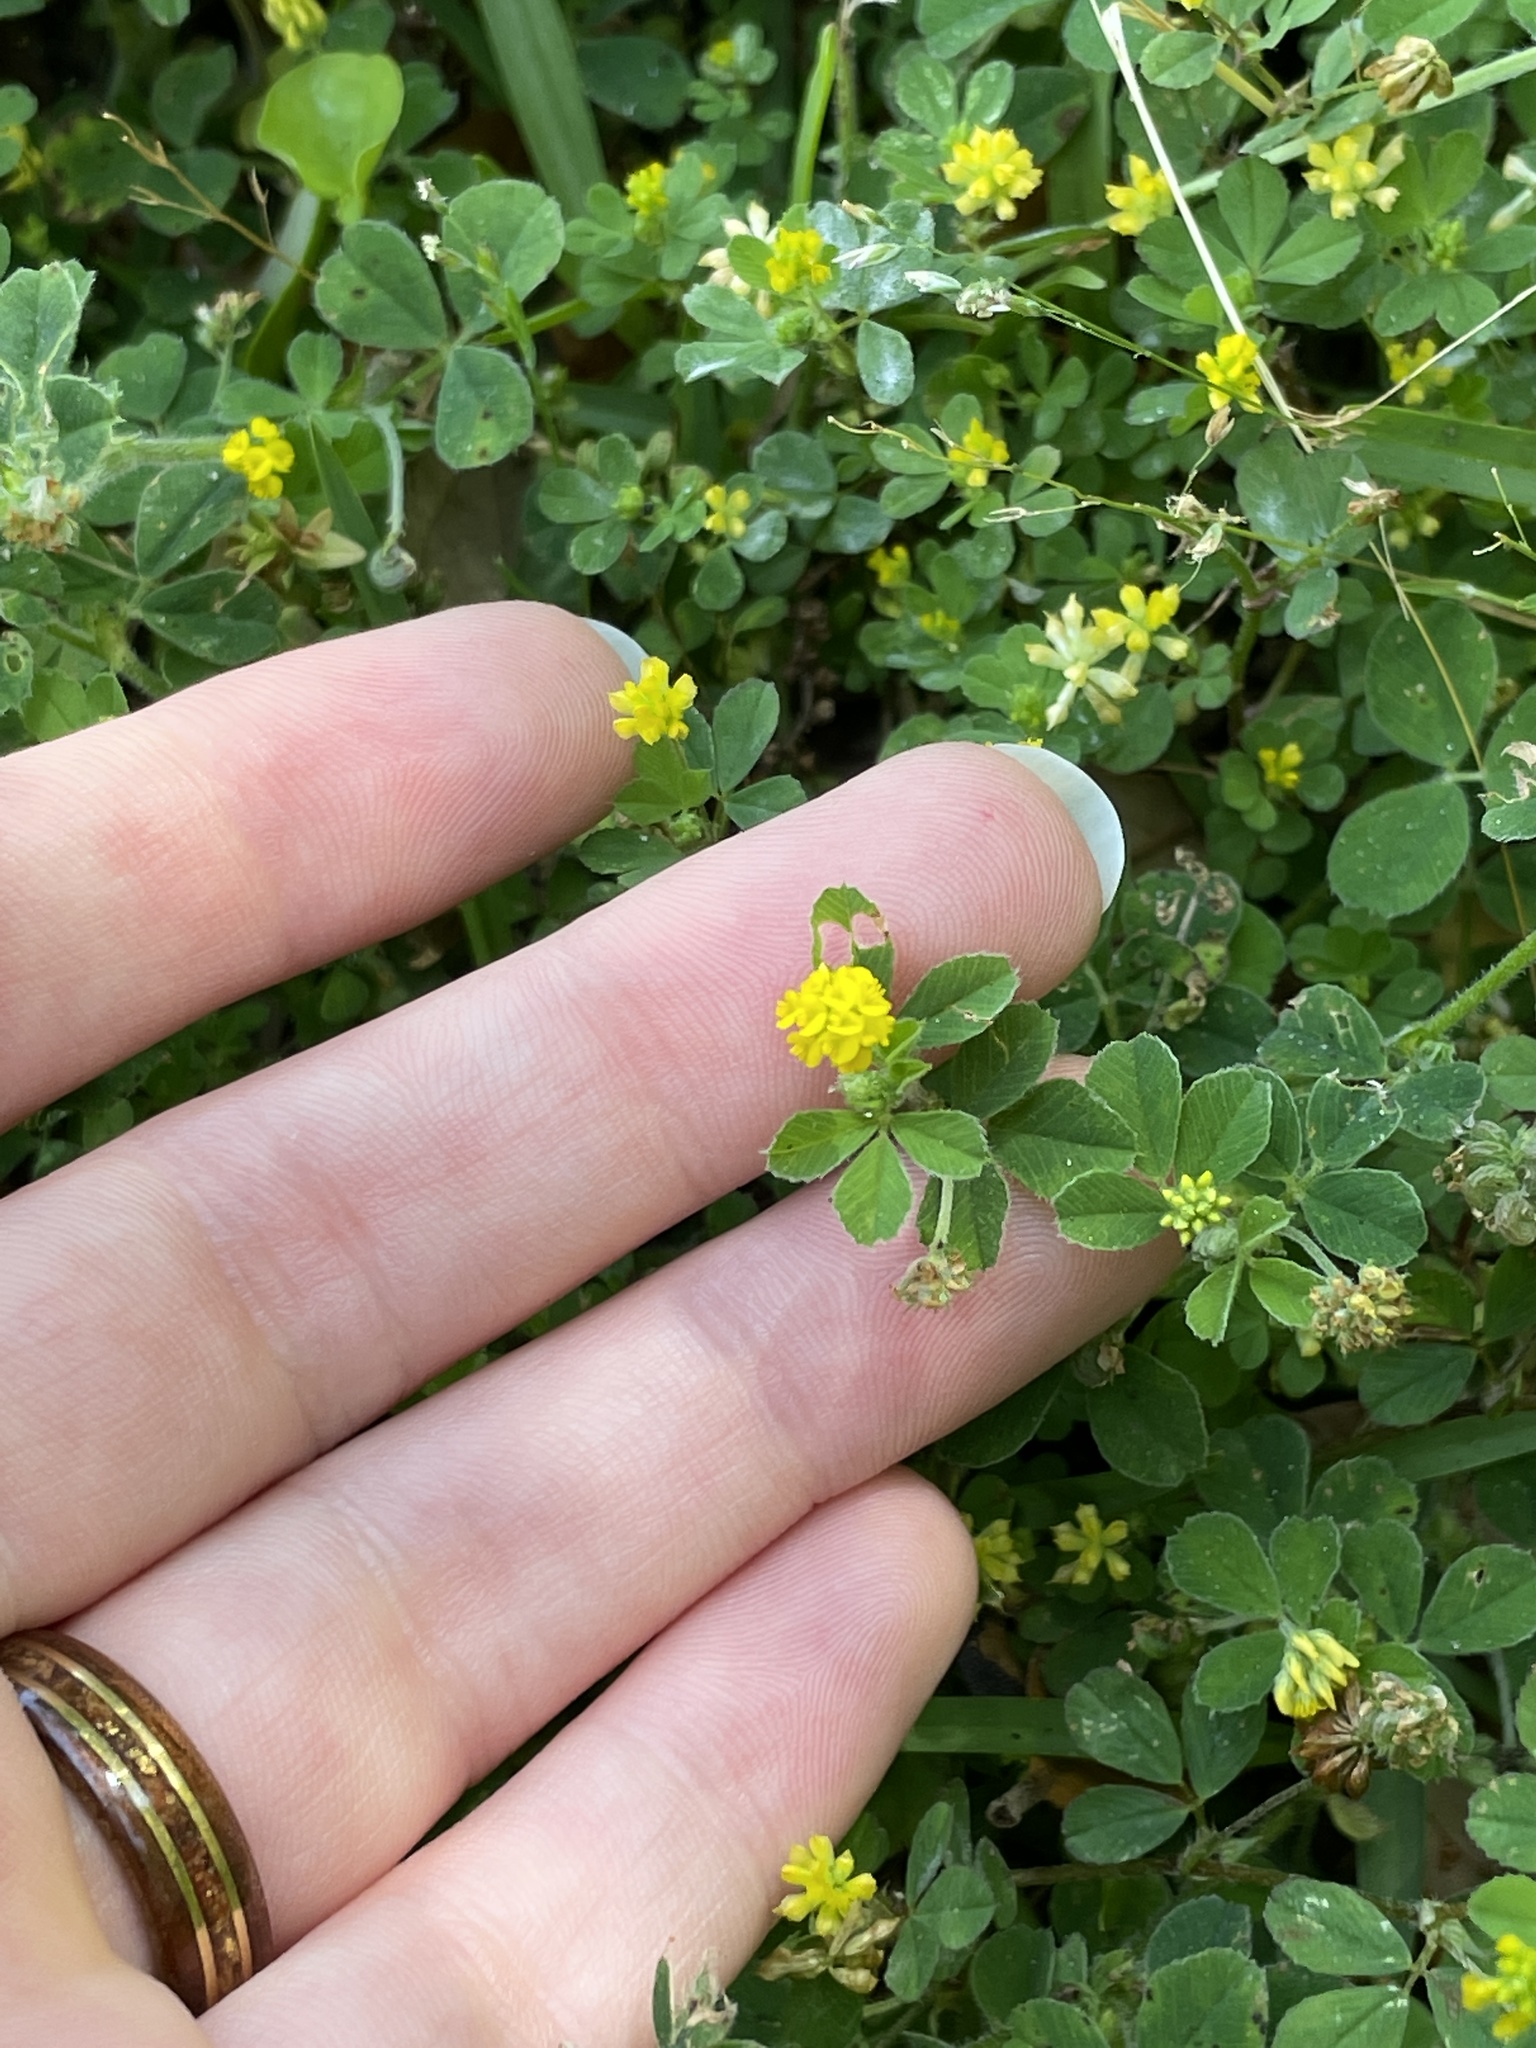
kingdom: Plantae
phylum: Tracheophyta
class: Magnoliopsida
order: Fabales
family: Fabaceae
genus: Medicago
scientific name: Medicago lupulina
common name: Black medick
